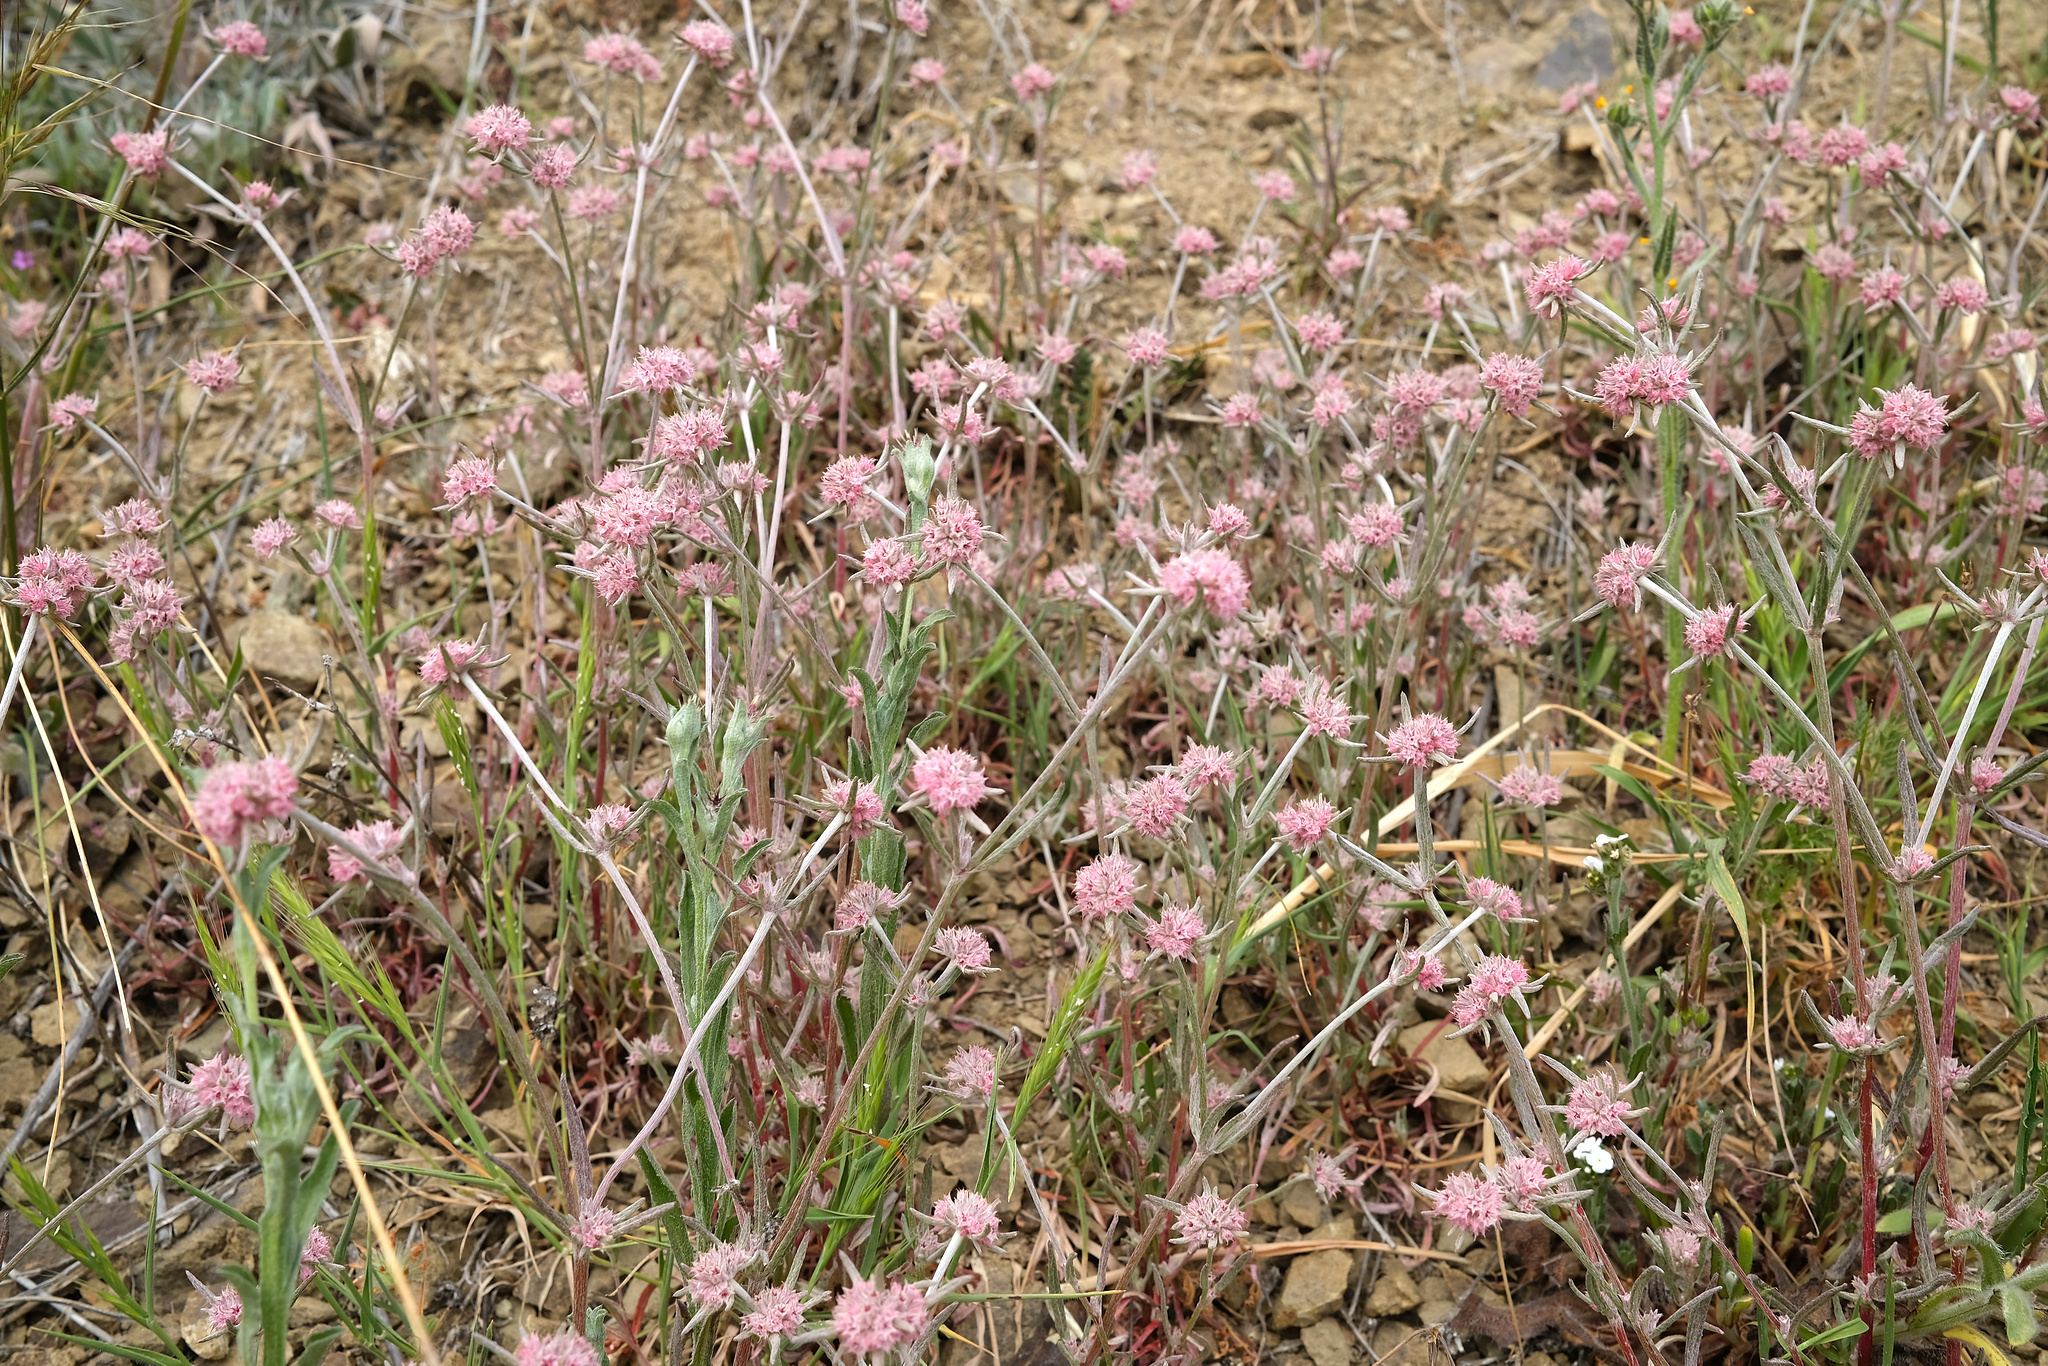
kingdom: Plantae
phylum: Tracheophyta
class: Magnoliopsida
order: Caryophyllales
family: Polygonaceae
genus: Chorizanthe
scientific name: Chorizanthe membranacea
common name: Pink spineflower
